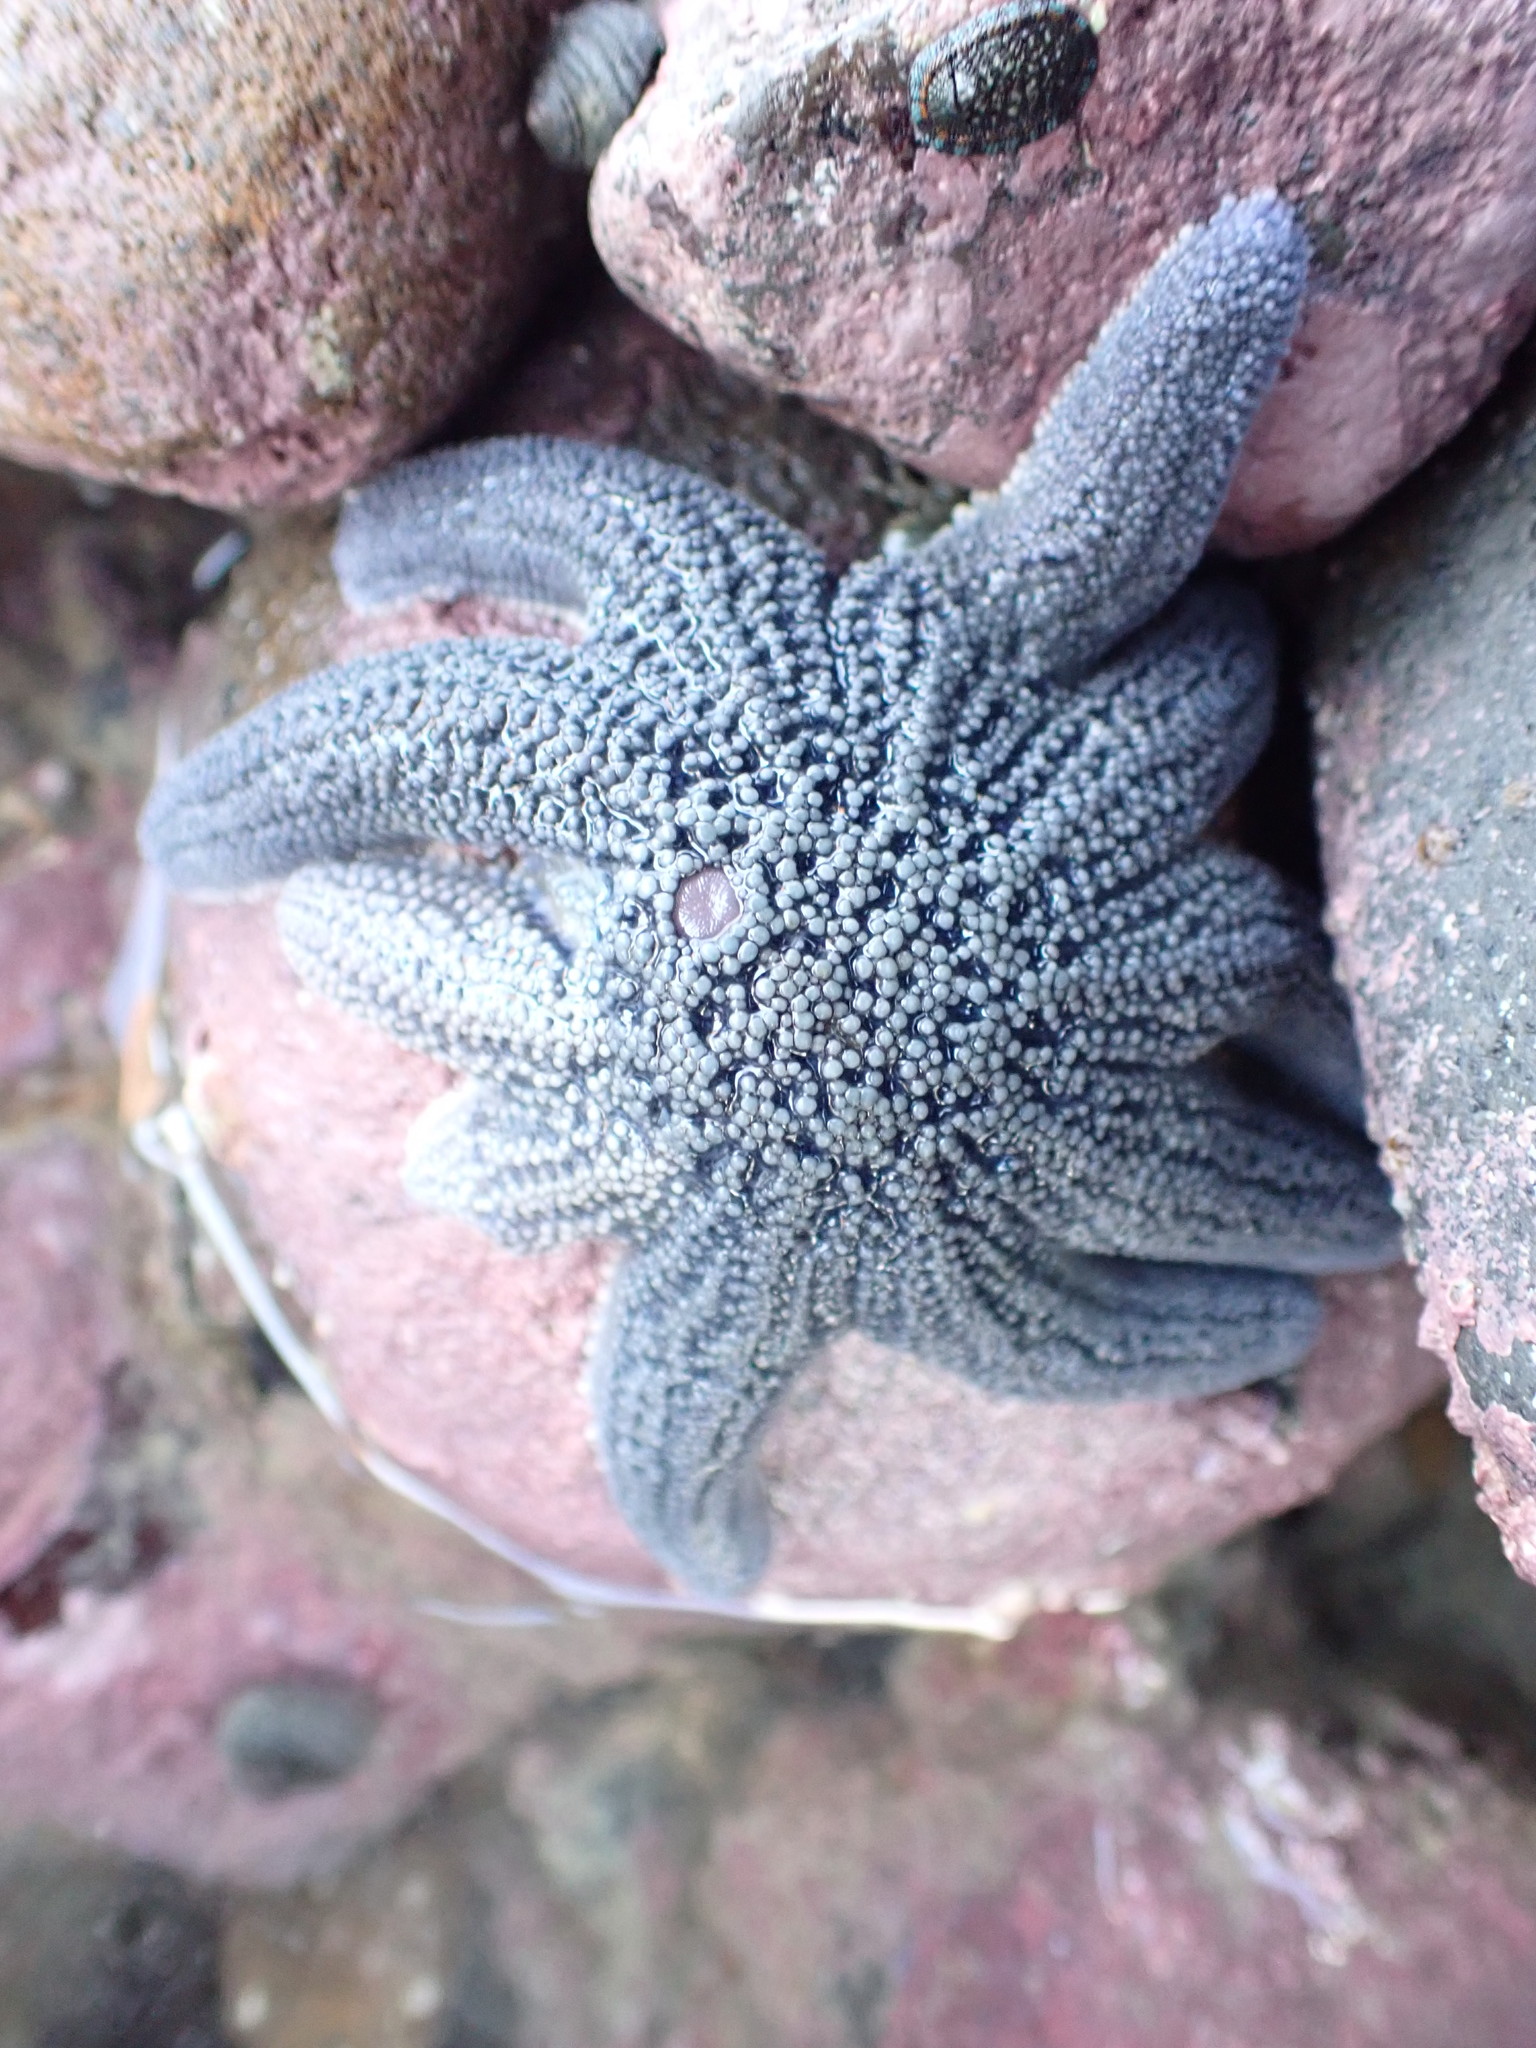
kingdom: Animalia
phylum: Echinodermata
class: Asteroidea
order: Forcipulatida
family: Stichasteridae
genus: Stichaster
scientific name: Stichaster australis
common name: Reef starfish
